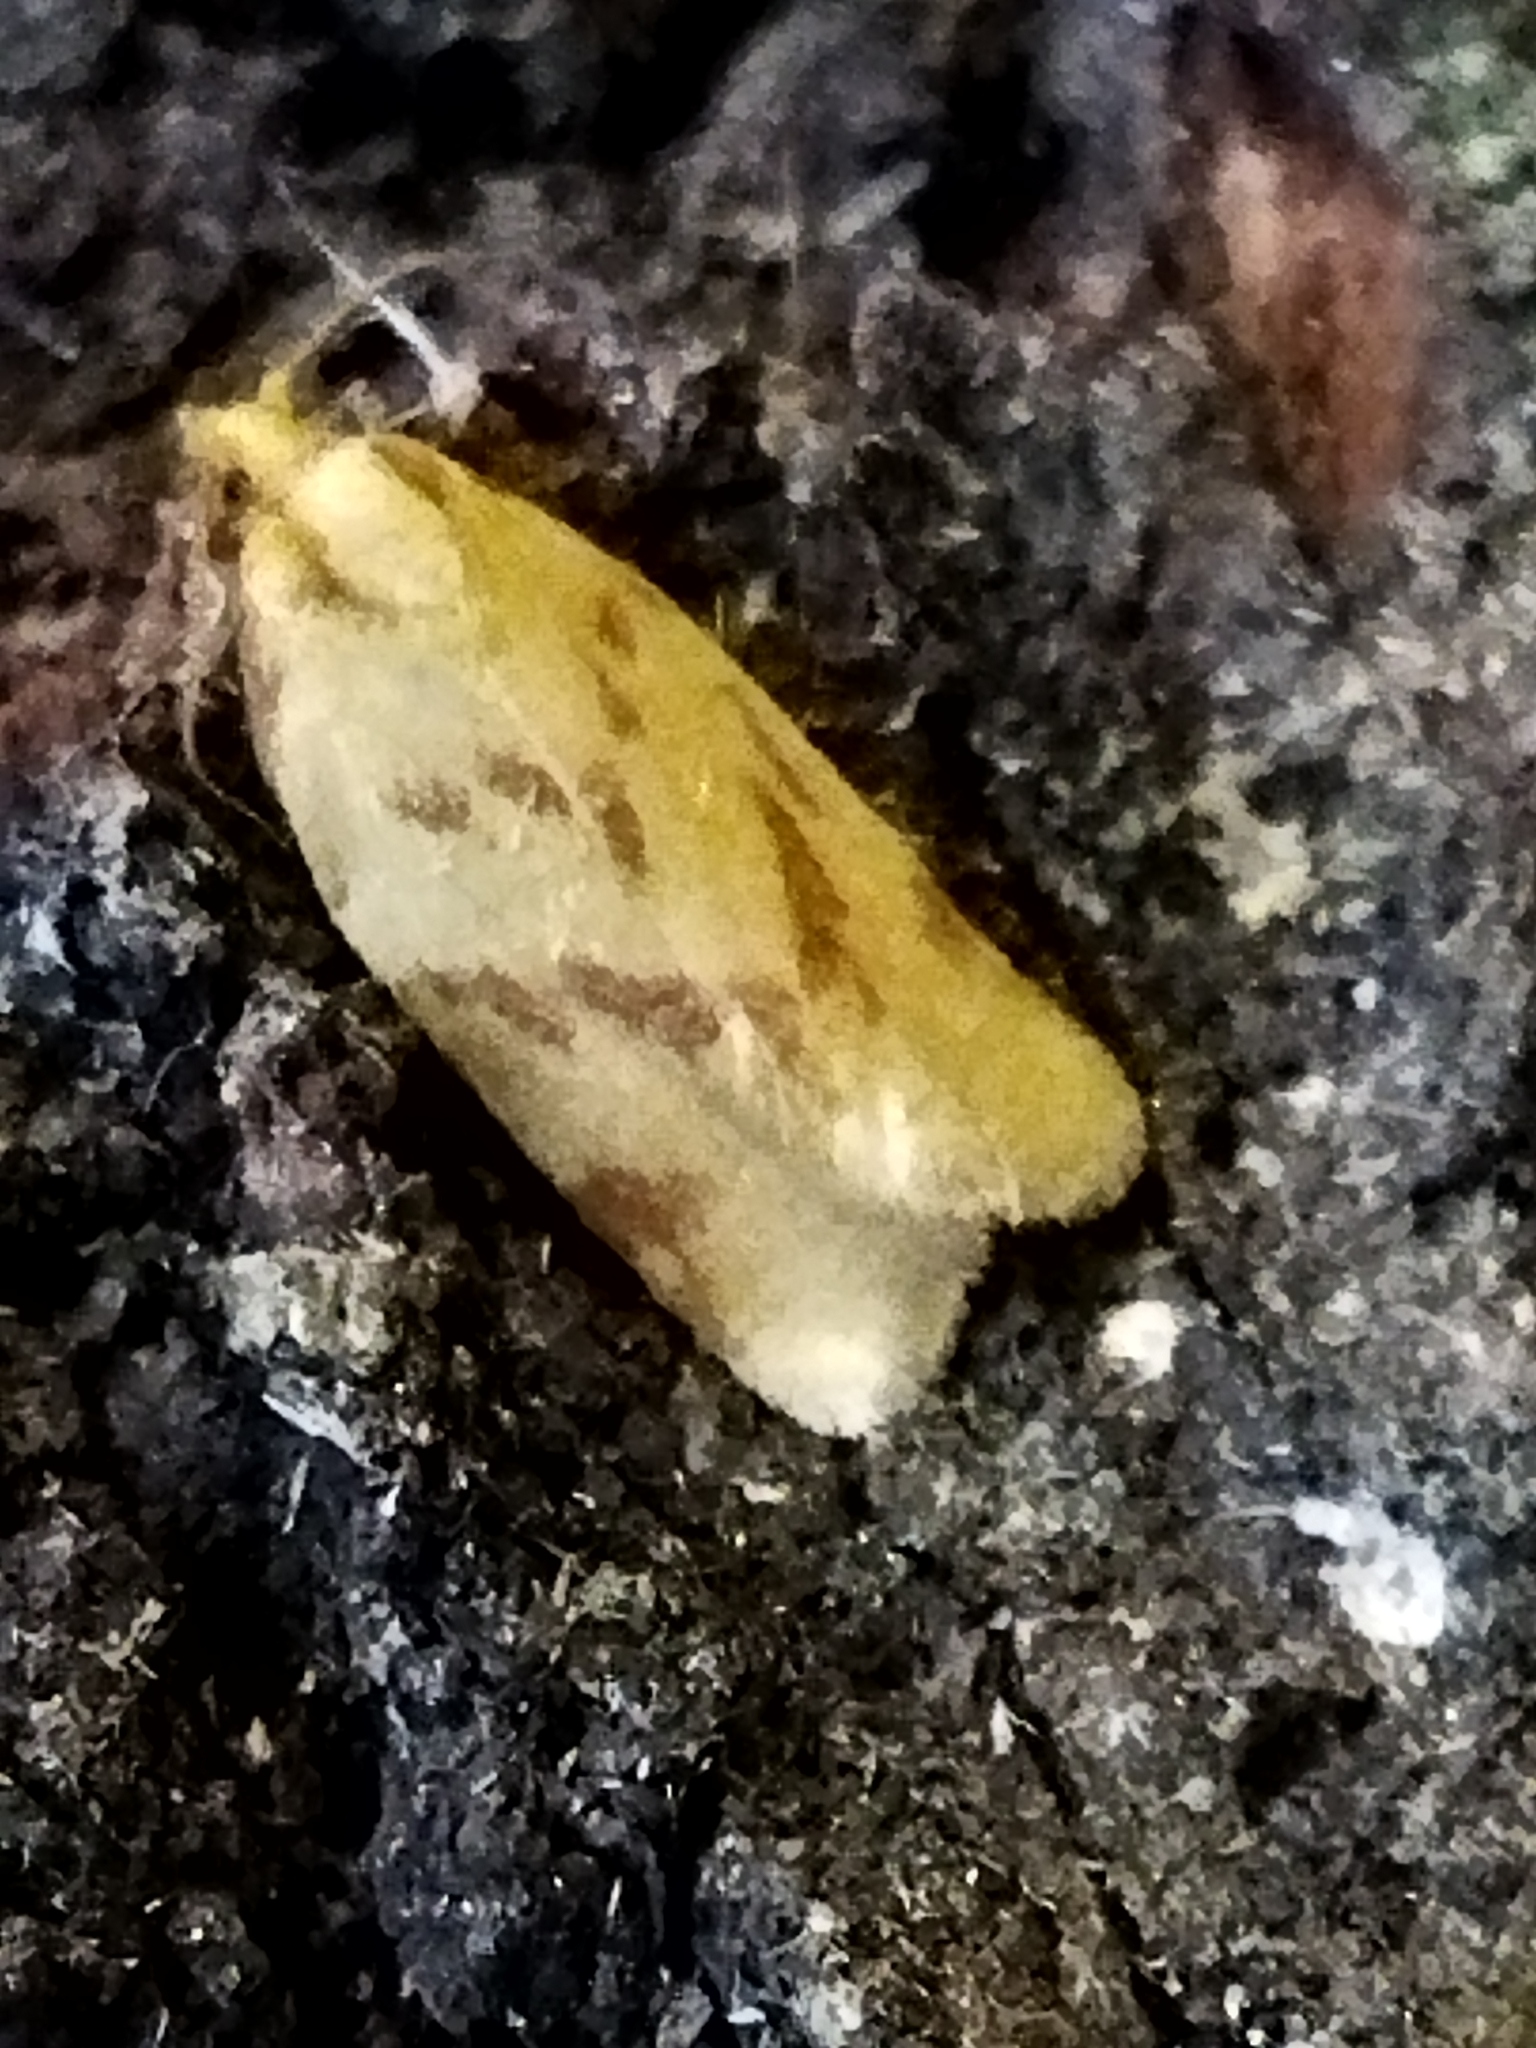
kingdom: Animalia
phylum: Arthropoda
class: Insecta
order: Lepidoptera
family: Tortricidae
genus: Clepsis
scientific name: Clepsis pallidana
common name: Sheep's-bit conch
